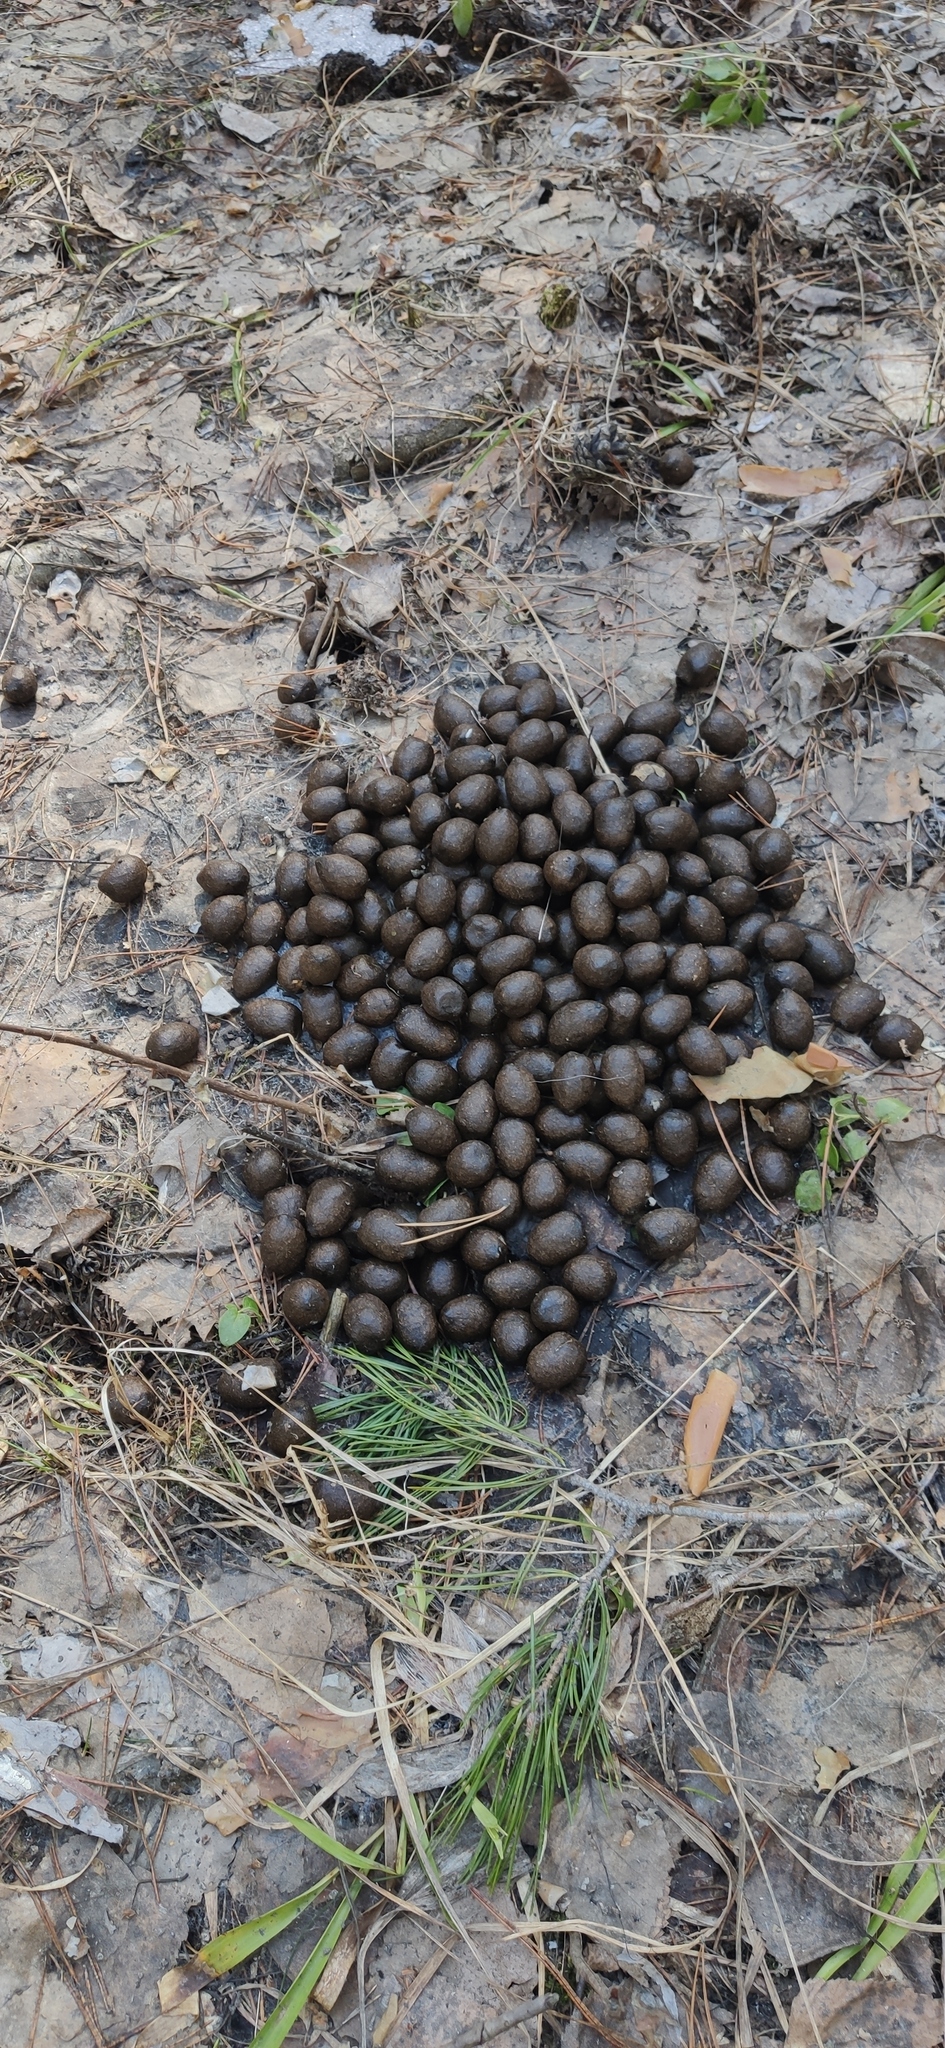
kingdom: Animalia
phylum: Chordata
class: Mammalia
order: Artiodactyla
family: Cervidae
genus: Capreolus
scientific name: Capreolus pygargus
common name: Siberian roe
